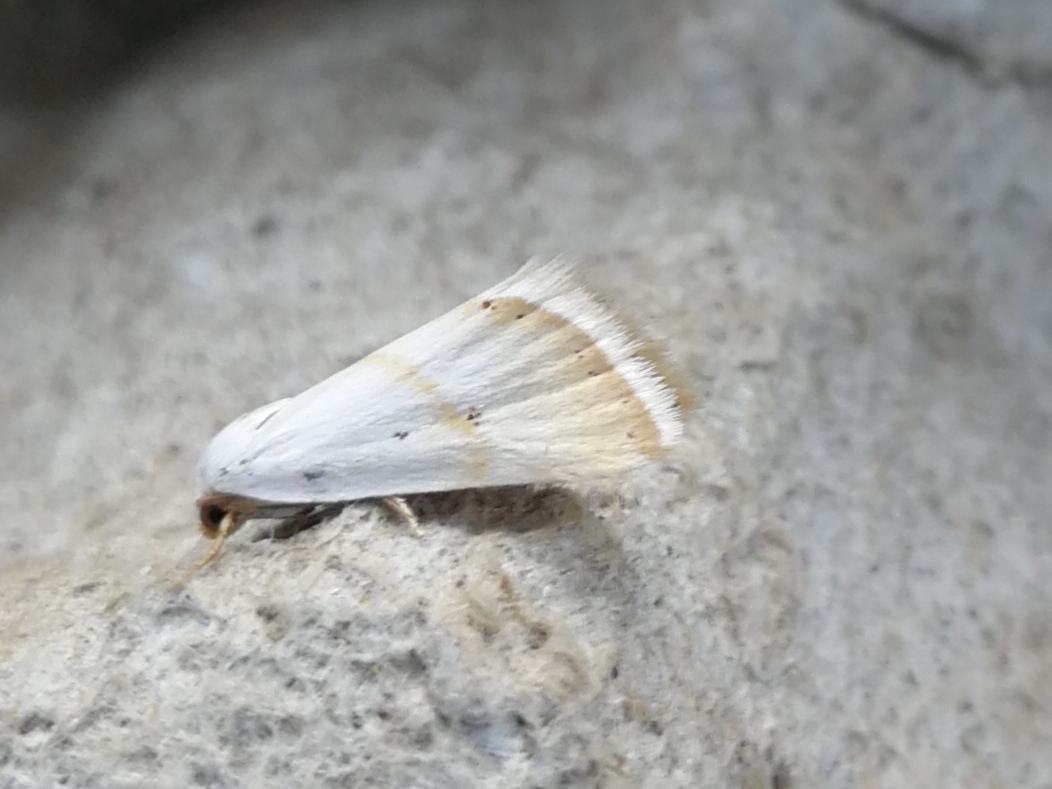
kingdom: Animalia
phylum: Arthropoda
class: Insecta
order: Lepidoptera
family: Noctuidae
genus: Eublemma
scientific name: Eublemma pura
